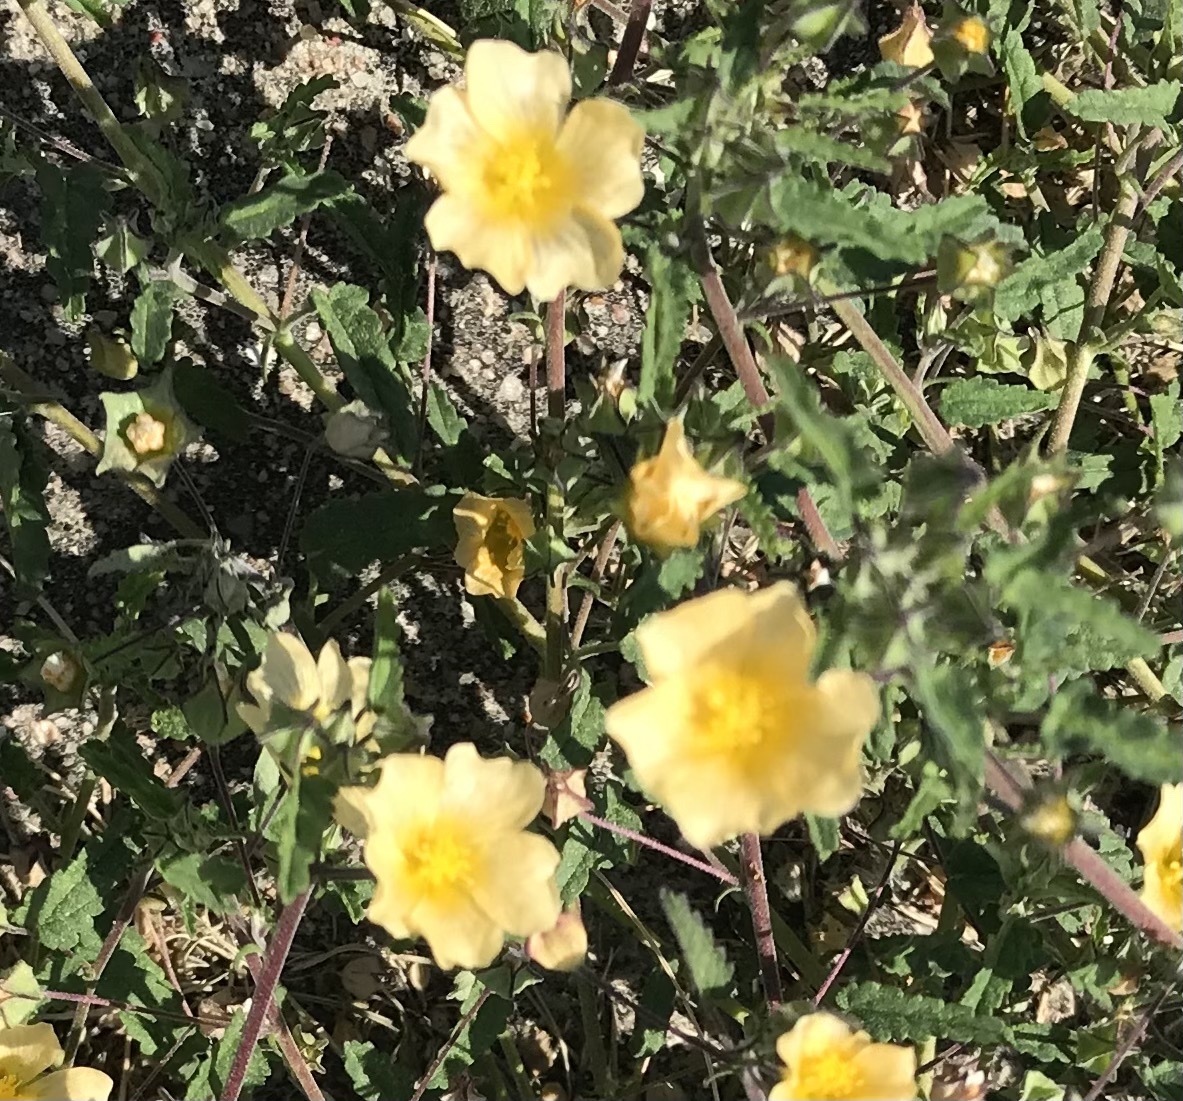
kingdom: Plantae
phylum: Tracheophyta
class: Magnoliopsida
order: Malvales
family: Malvaceae
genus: Sida
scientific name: Sida abutilifolia
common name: Spreading fanpetals
